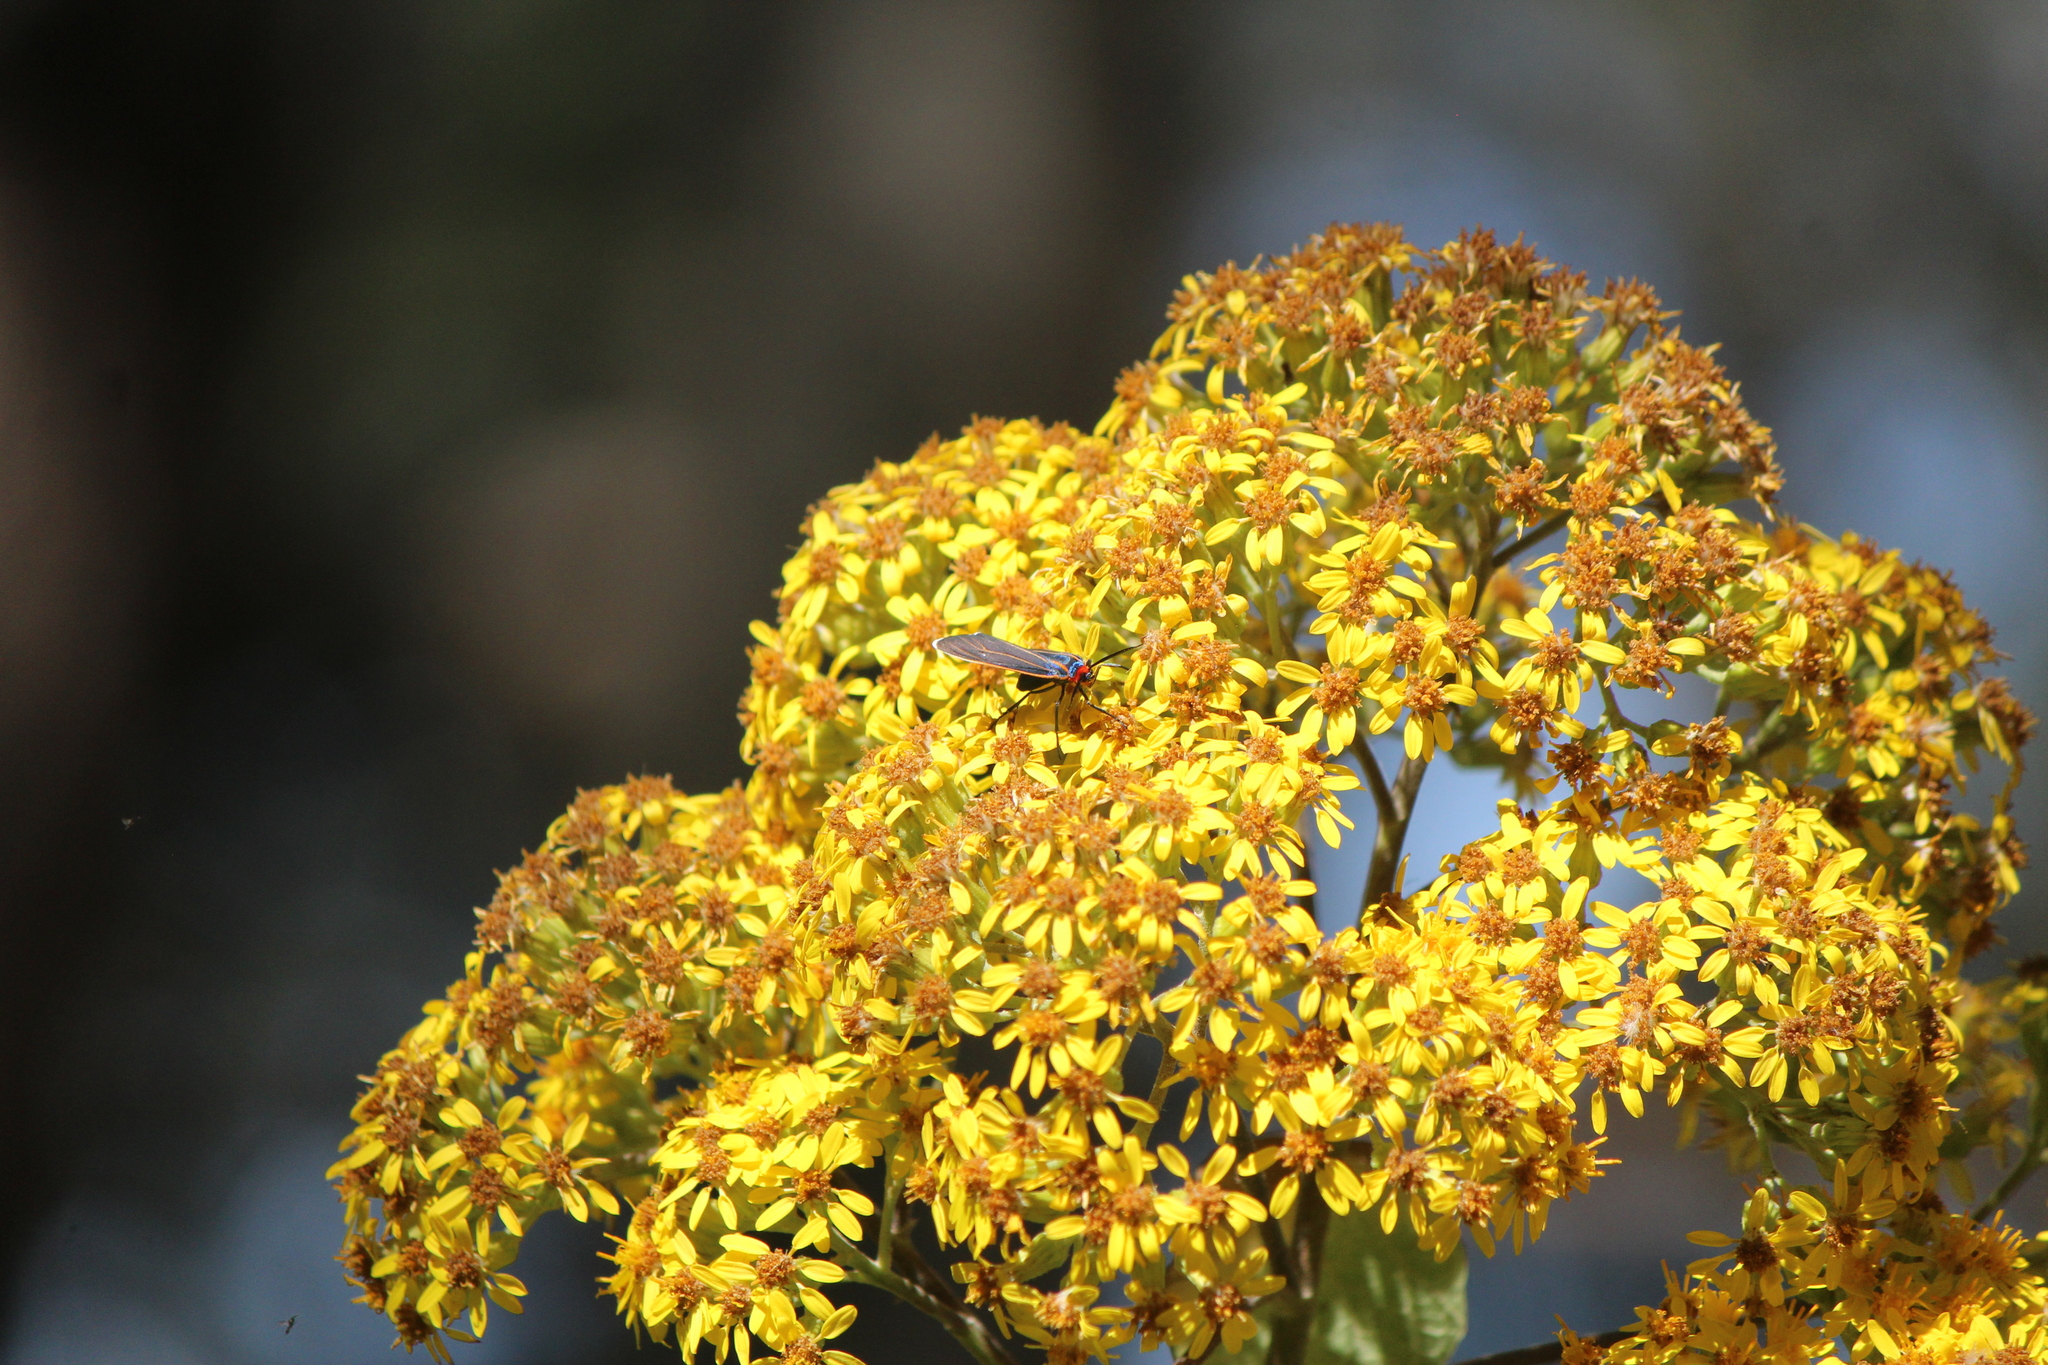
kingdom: Animalia
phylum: Arthropoda
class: Insecta
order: Lepidoptera
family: Erebidae
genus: Ctenucha
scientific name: Ctenucha venosa
